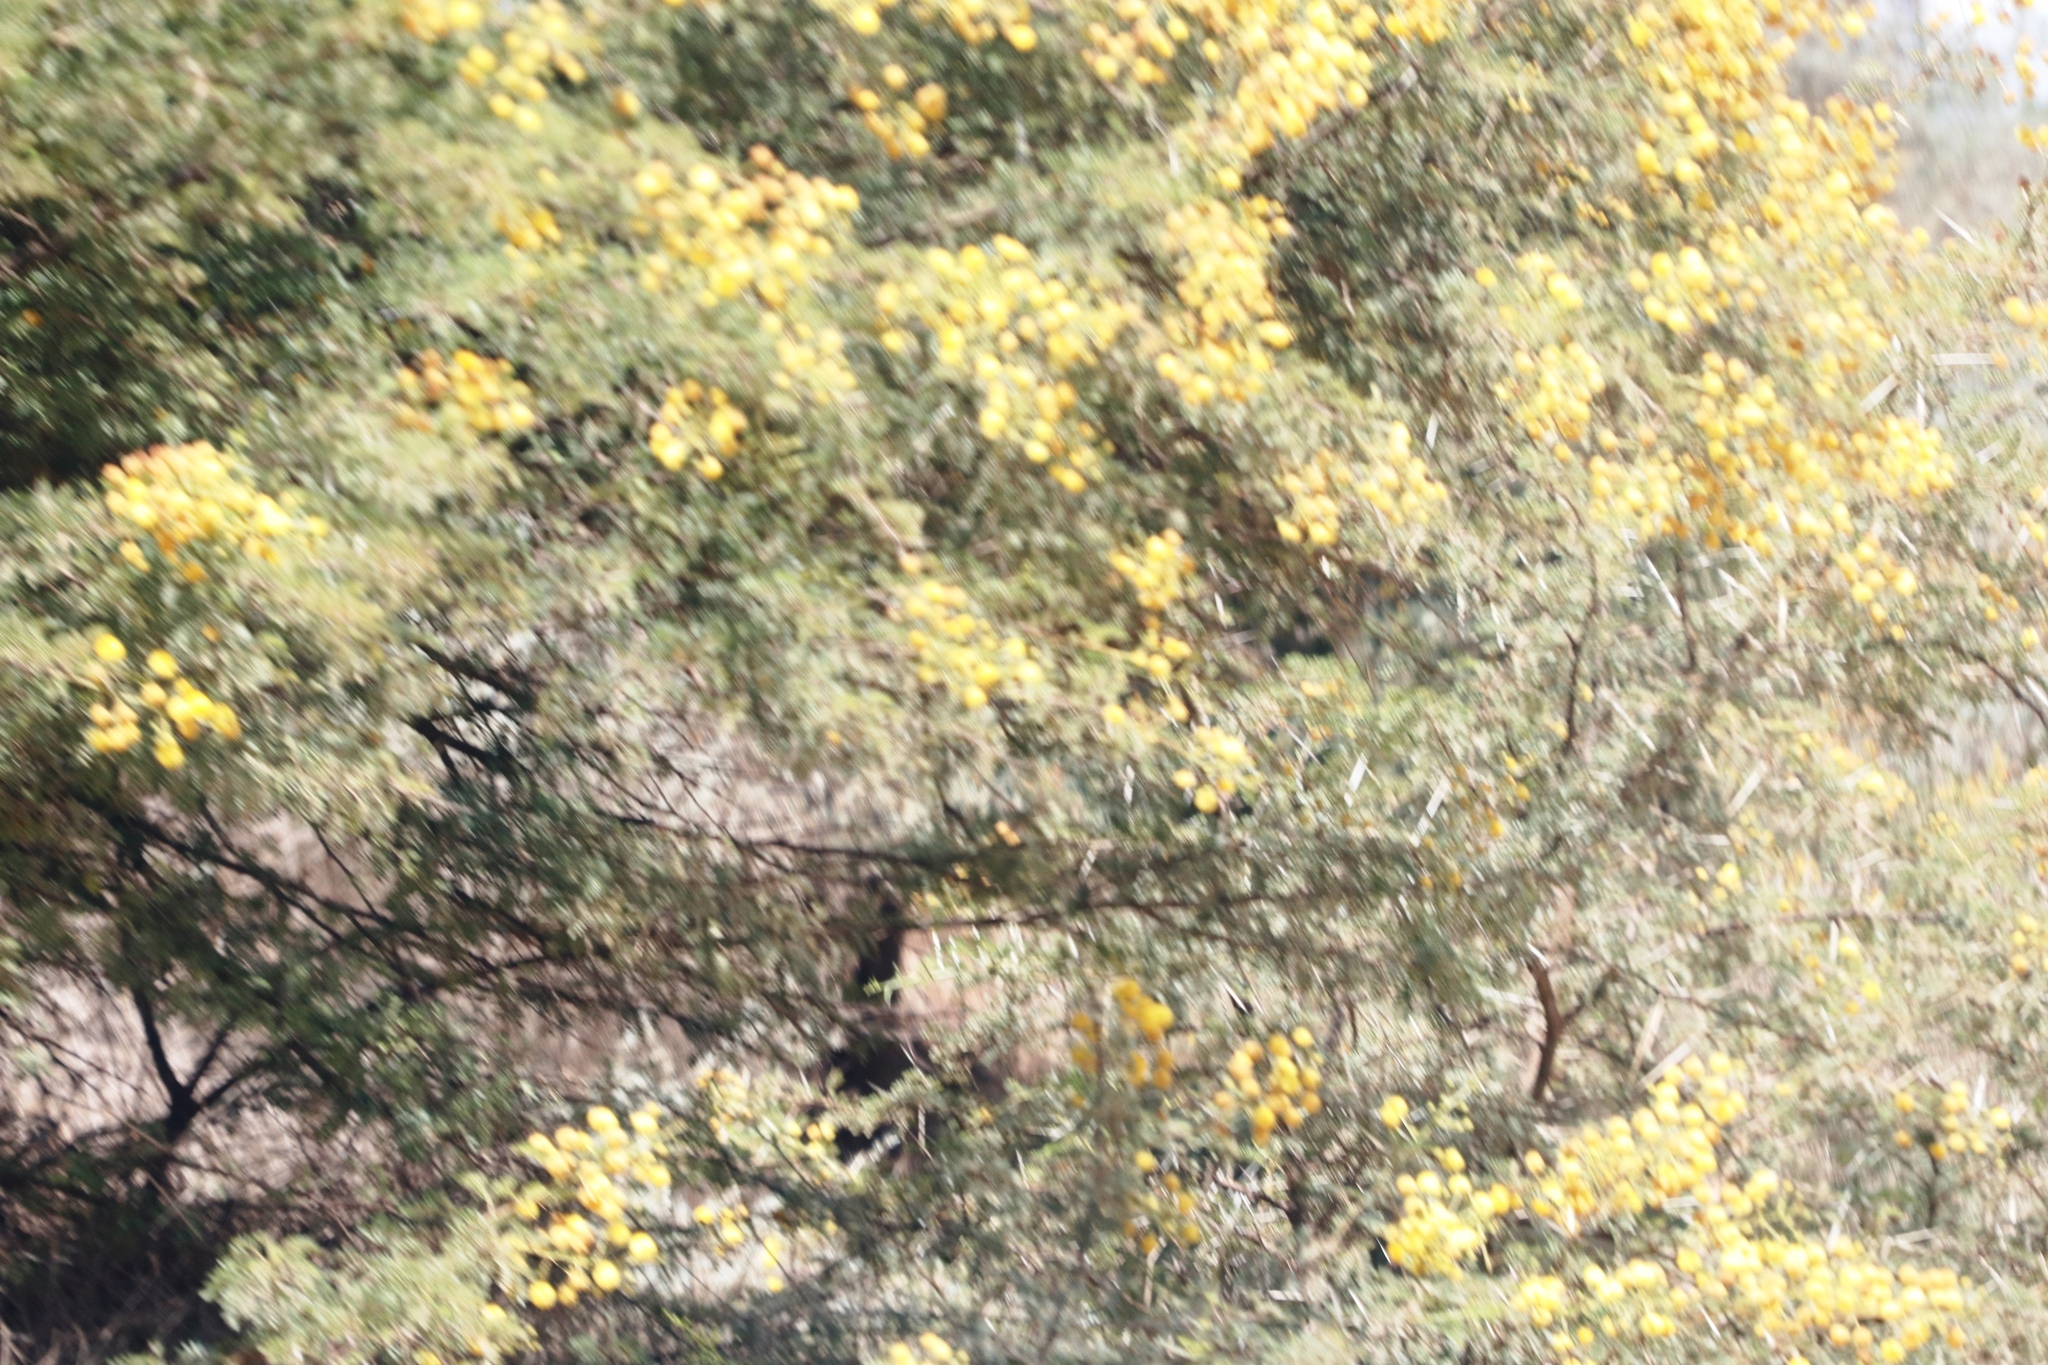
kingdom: Plantae
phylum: Tracheophyta
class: Magnoliopsida
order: Fabales
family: Fabaceae
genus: Vachellia
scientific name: Vachellia karroo
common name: Sweet thorn
